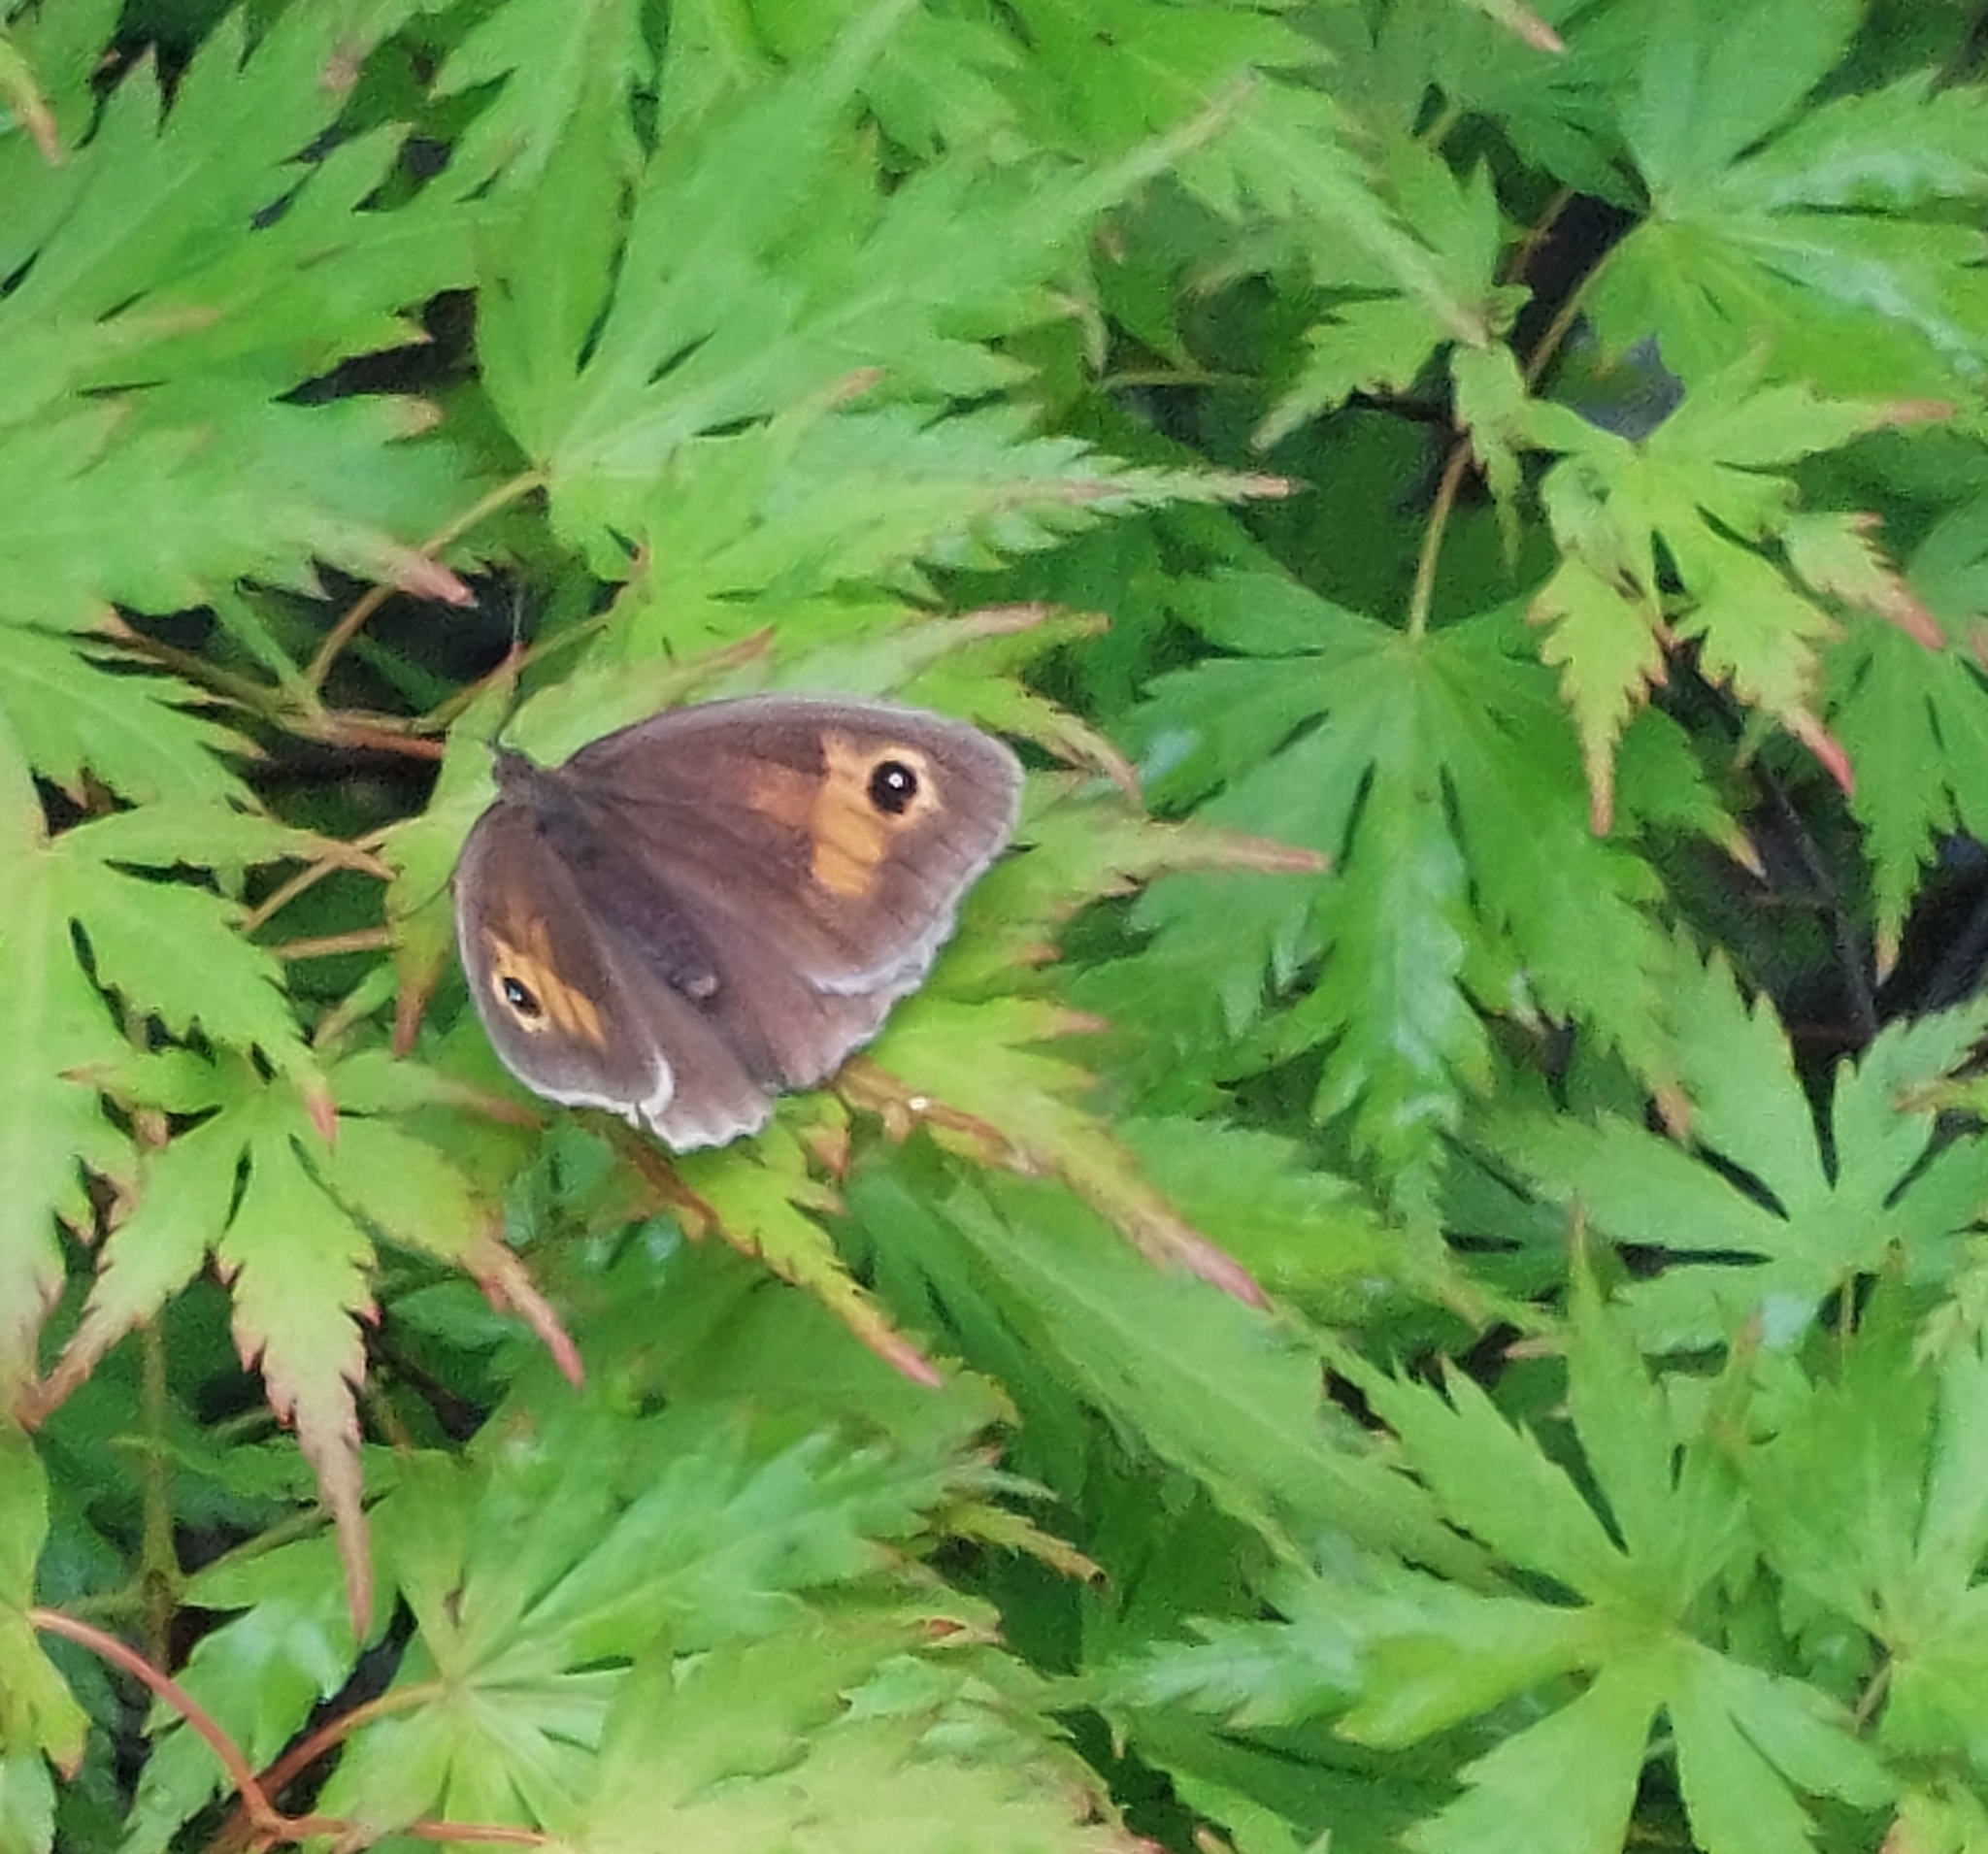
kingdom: Animalia
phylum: Arthropoda
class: Insecta
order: Lepidoptera
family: Nymphalidae
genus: Maniola
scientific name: Maniola jurtina
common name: Meadow brown
